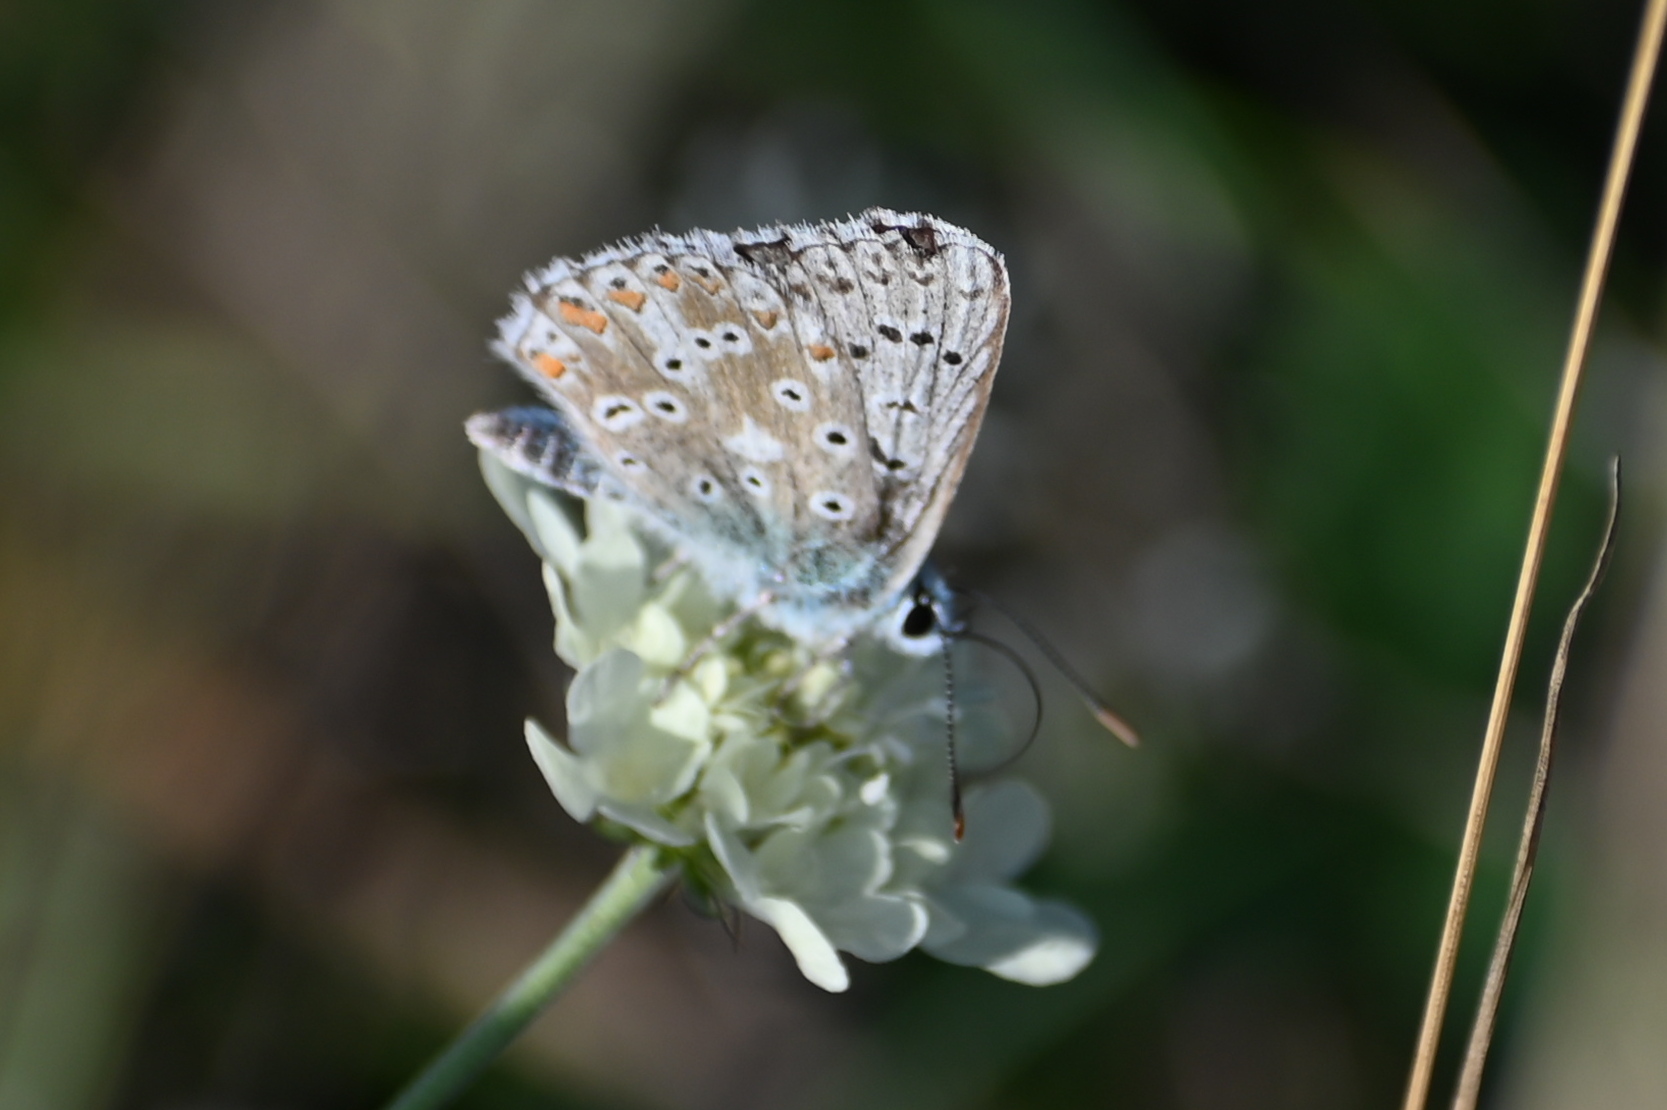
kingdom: Animalia
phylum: Arthropoda
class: Insecta
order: Lepidoptera
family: Lycaenidae
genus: Lysandra
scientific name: Lysandra coridon
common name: Chalkhill blue
